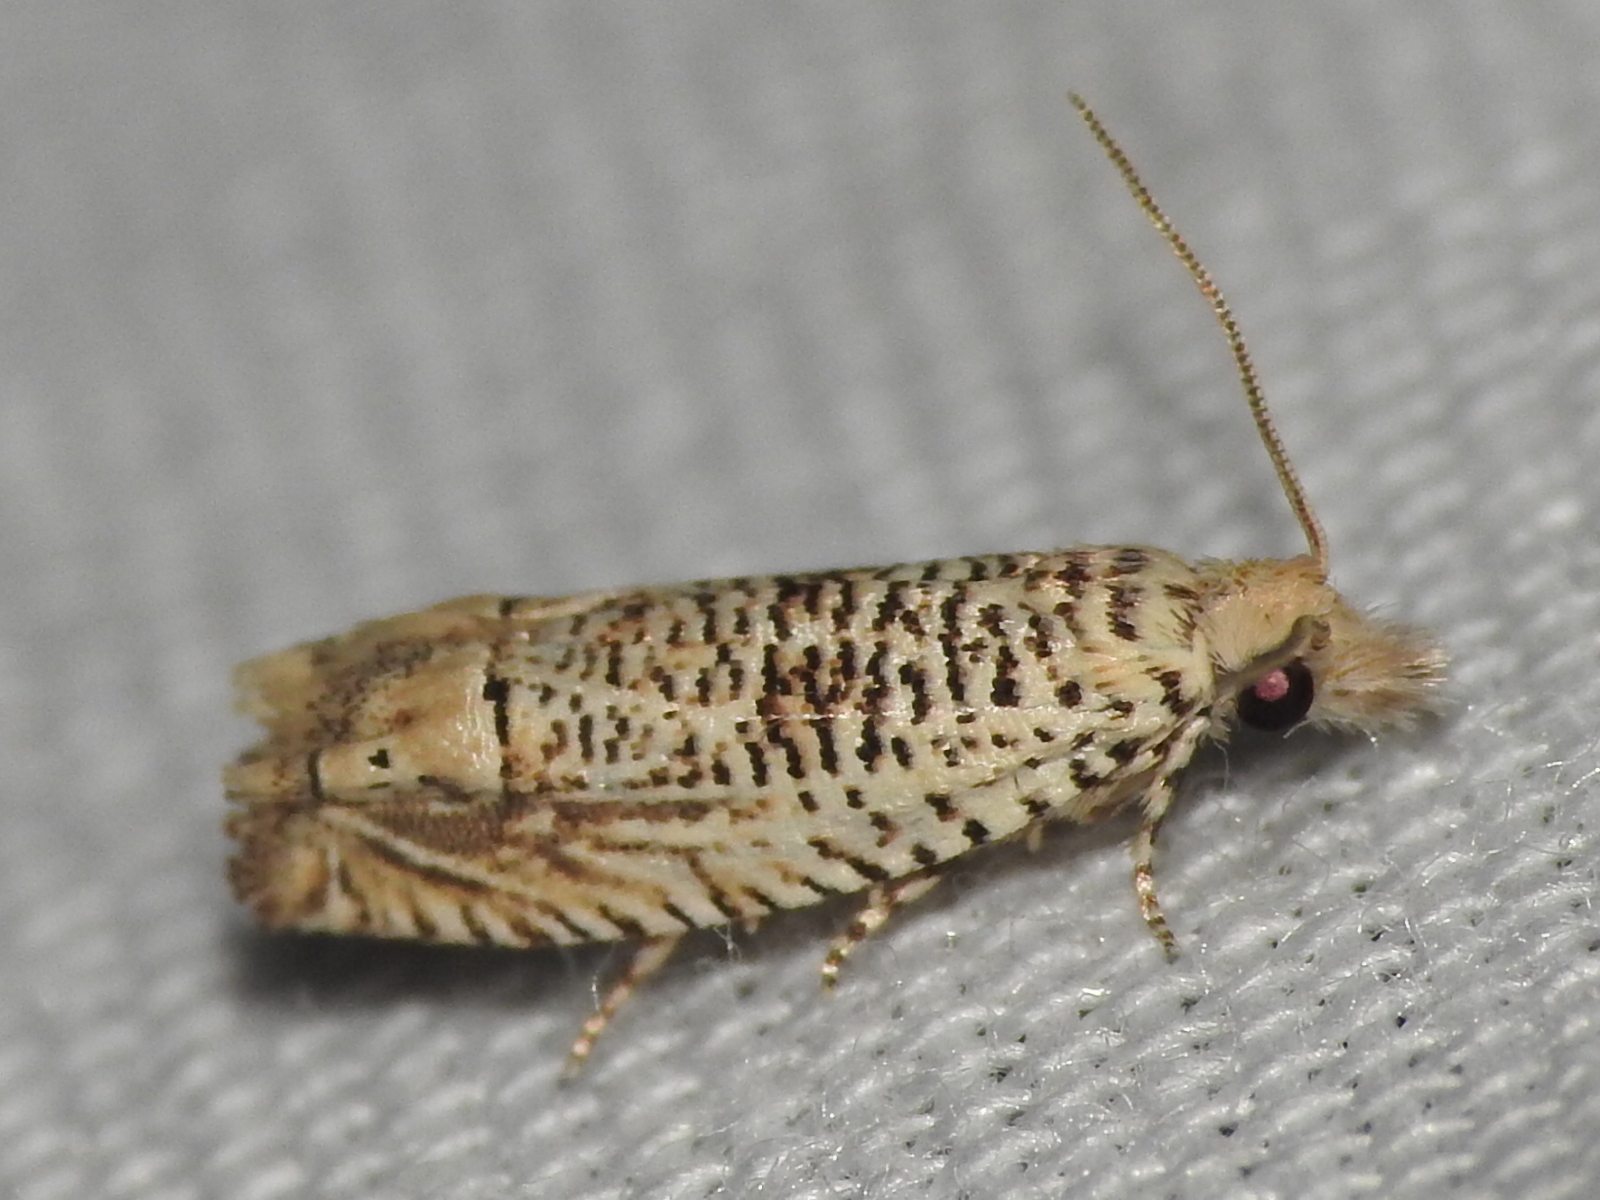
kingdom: Animalia
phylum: Arthropoda
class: Insecta
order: Lepidoptera
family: Tortricidae
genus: Eucosma
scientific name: Eucosma argutipunctana
